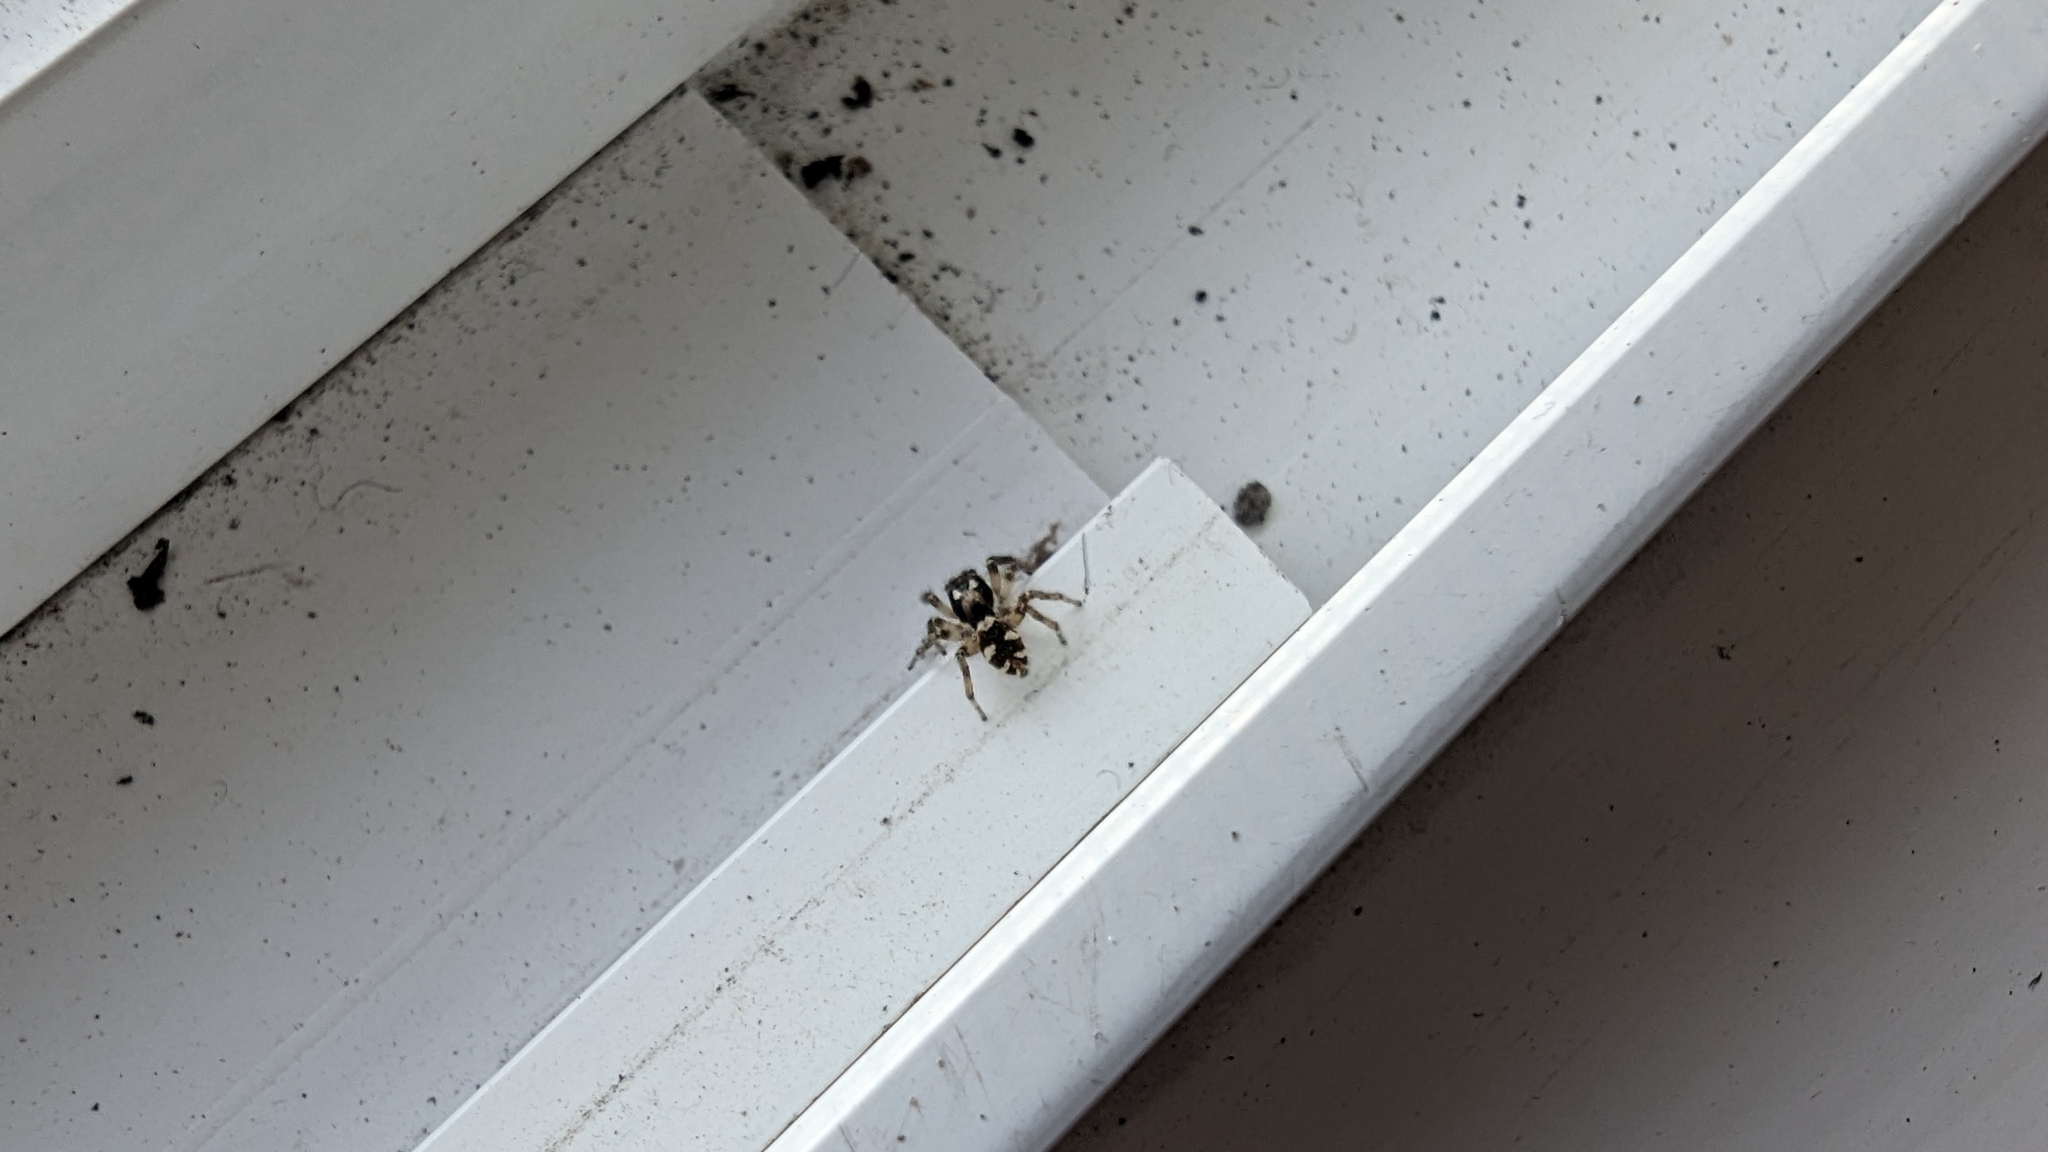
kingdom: Animalia
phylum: Arthropoda
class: Arachnida
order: Araneae
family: Salticidae
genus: Salticus
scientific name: Salticus scenicus
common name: Zebra jumper
